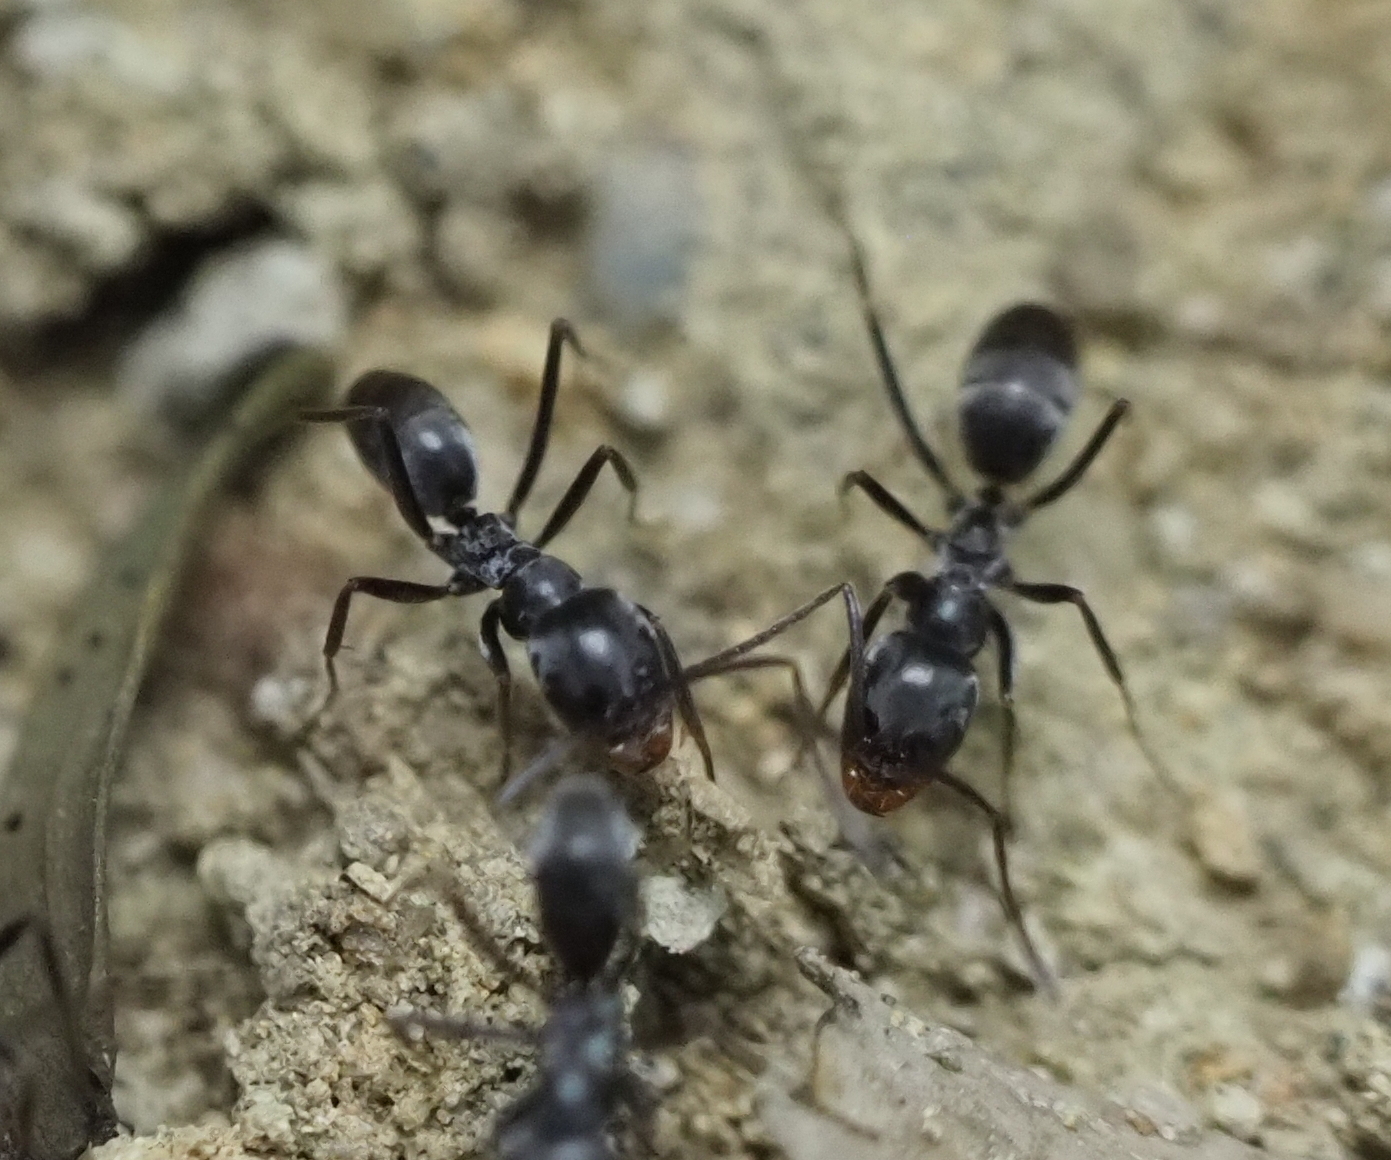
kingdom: Animalia
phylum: Arthropoda
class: Insecta
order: Hymenoptera
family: Formicidae
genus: Dorymyrmex
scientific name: Dorymyrmex
